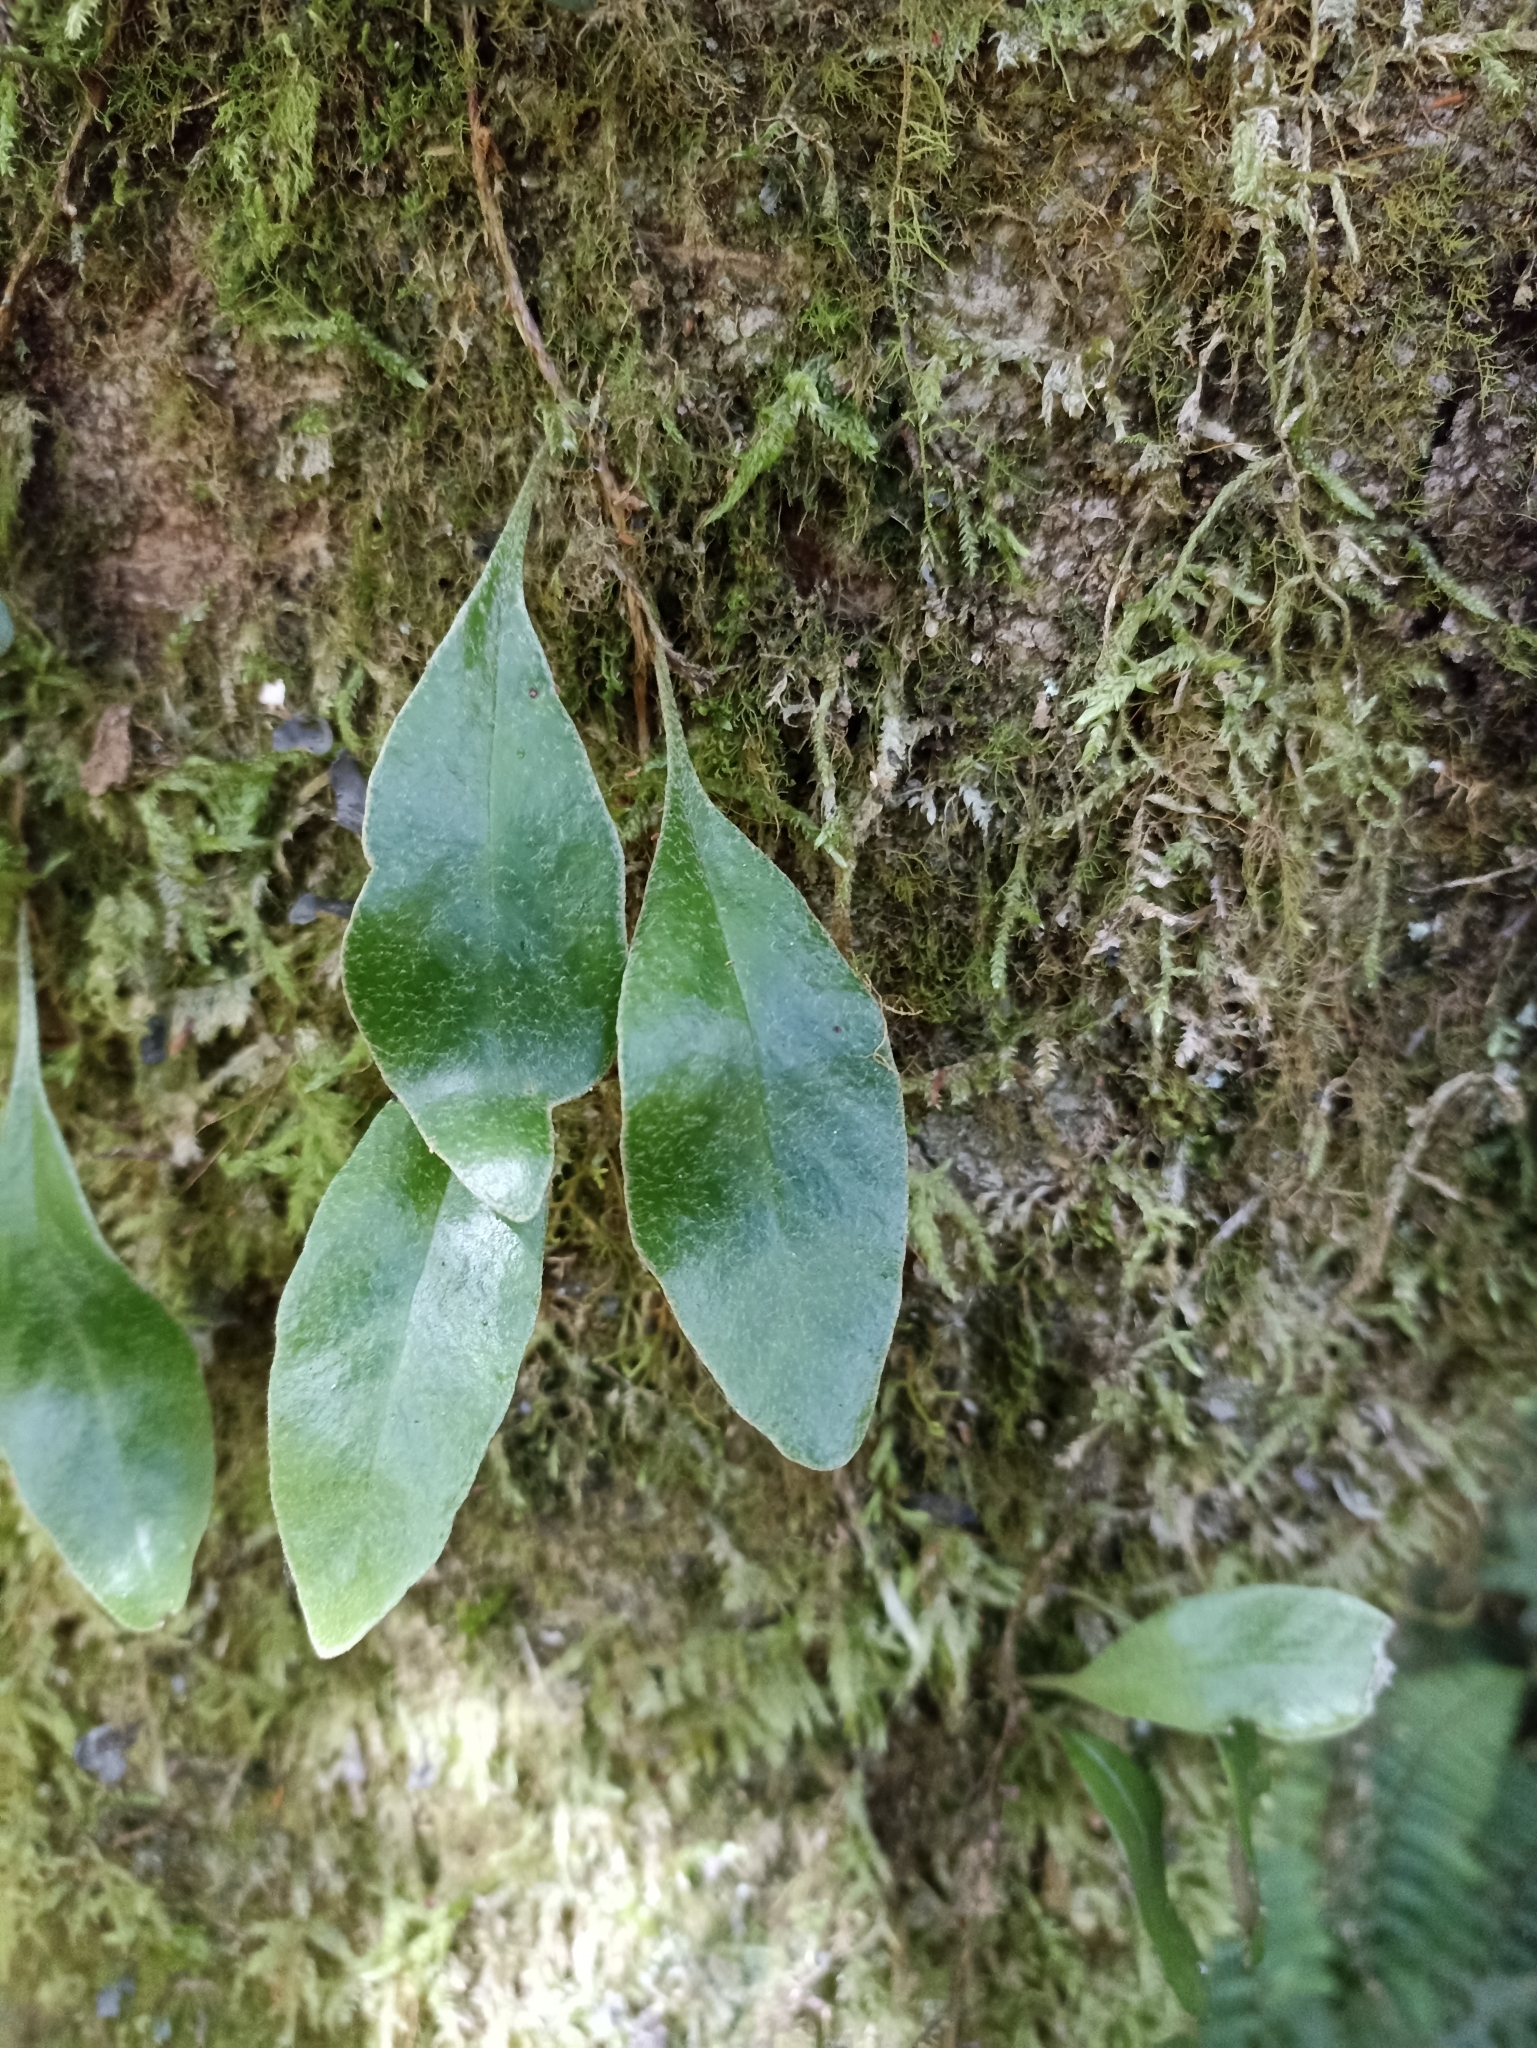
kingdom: Plantae
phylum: Tracheophyta
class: Polypodiopsida
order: Polypodiales
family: Polypodiaceae
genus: Pyrrosia
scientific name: Pyrrosia eleagnifolia
